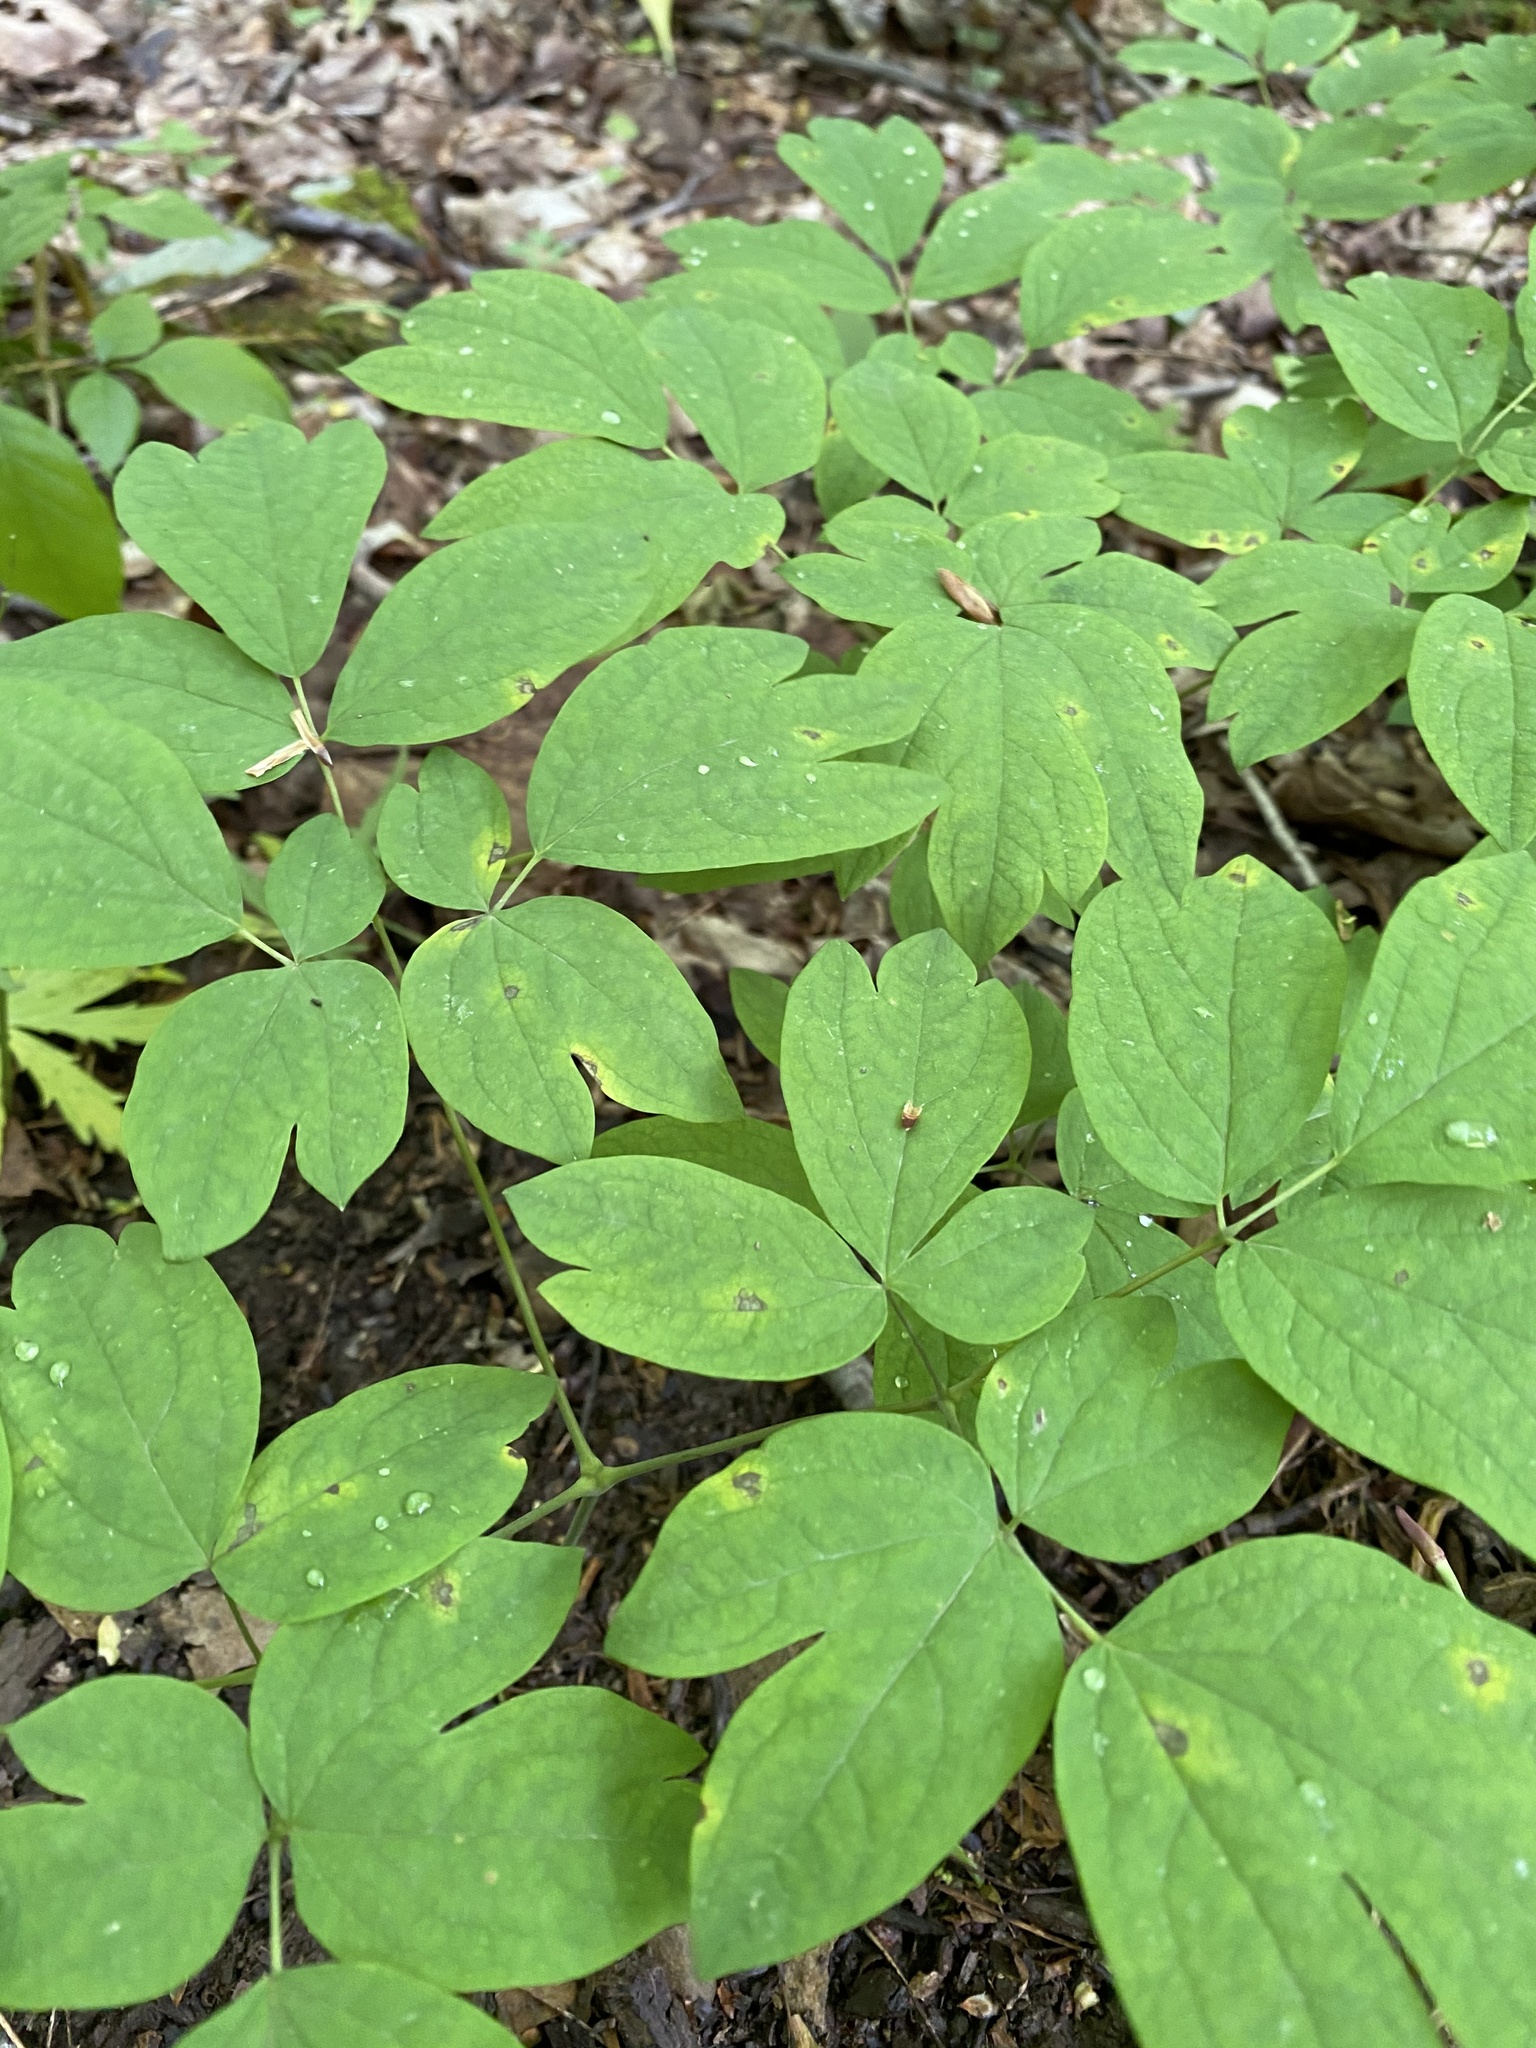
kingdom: Plantae
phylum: Tracheophyta
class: Magnoliopsida
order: Ranunculales
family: Berberidaceae
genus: Caulophyllum
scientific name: Caulophyllum giganteum
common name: Blue cohosh
